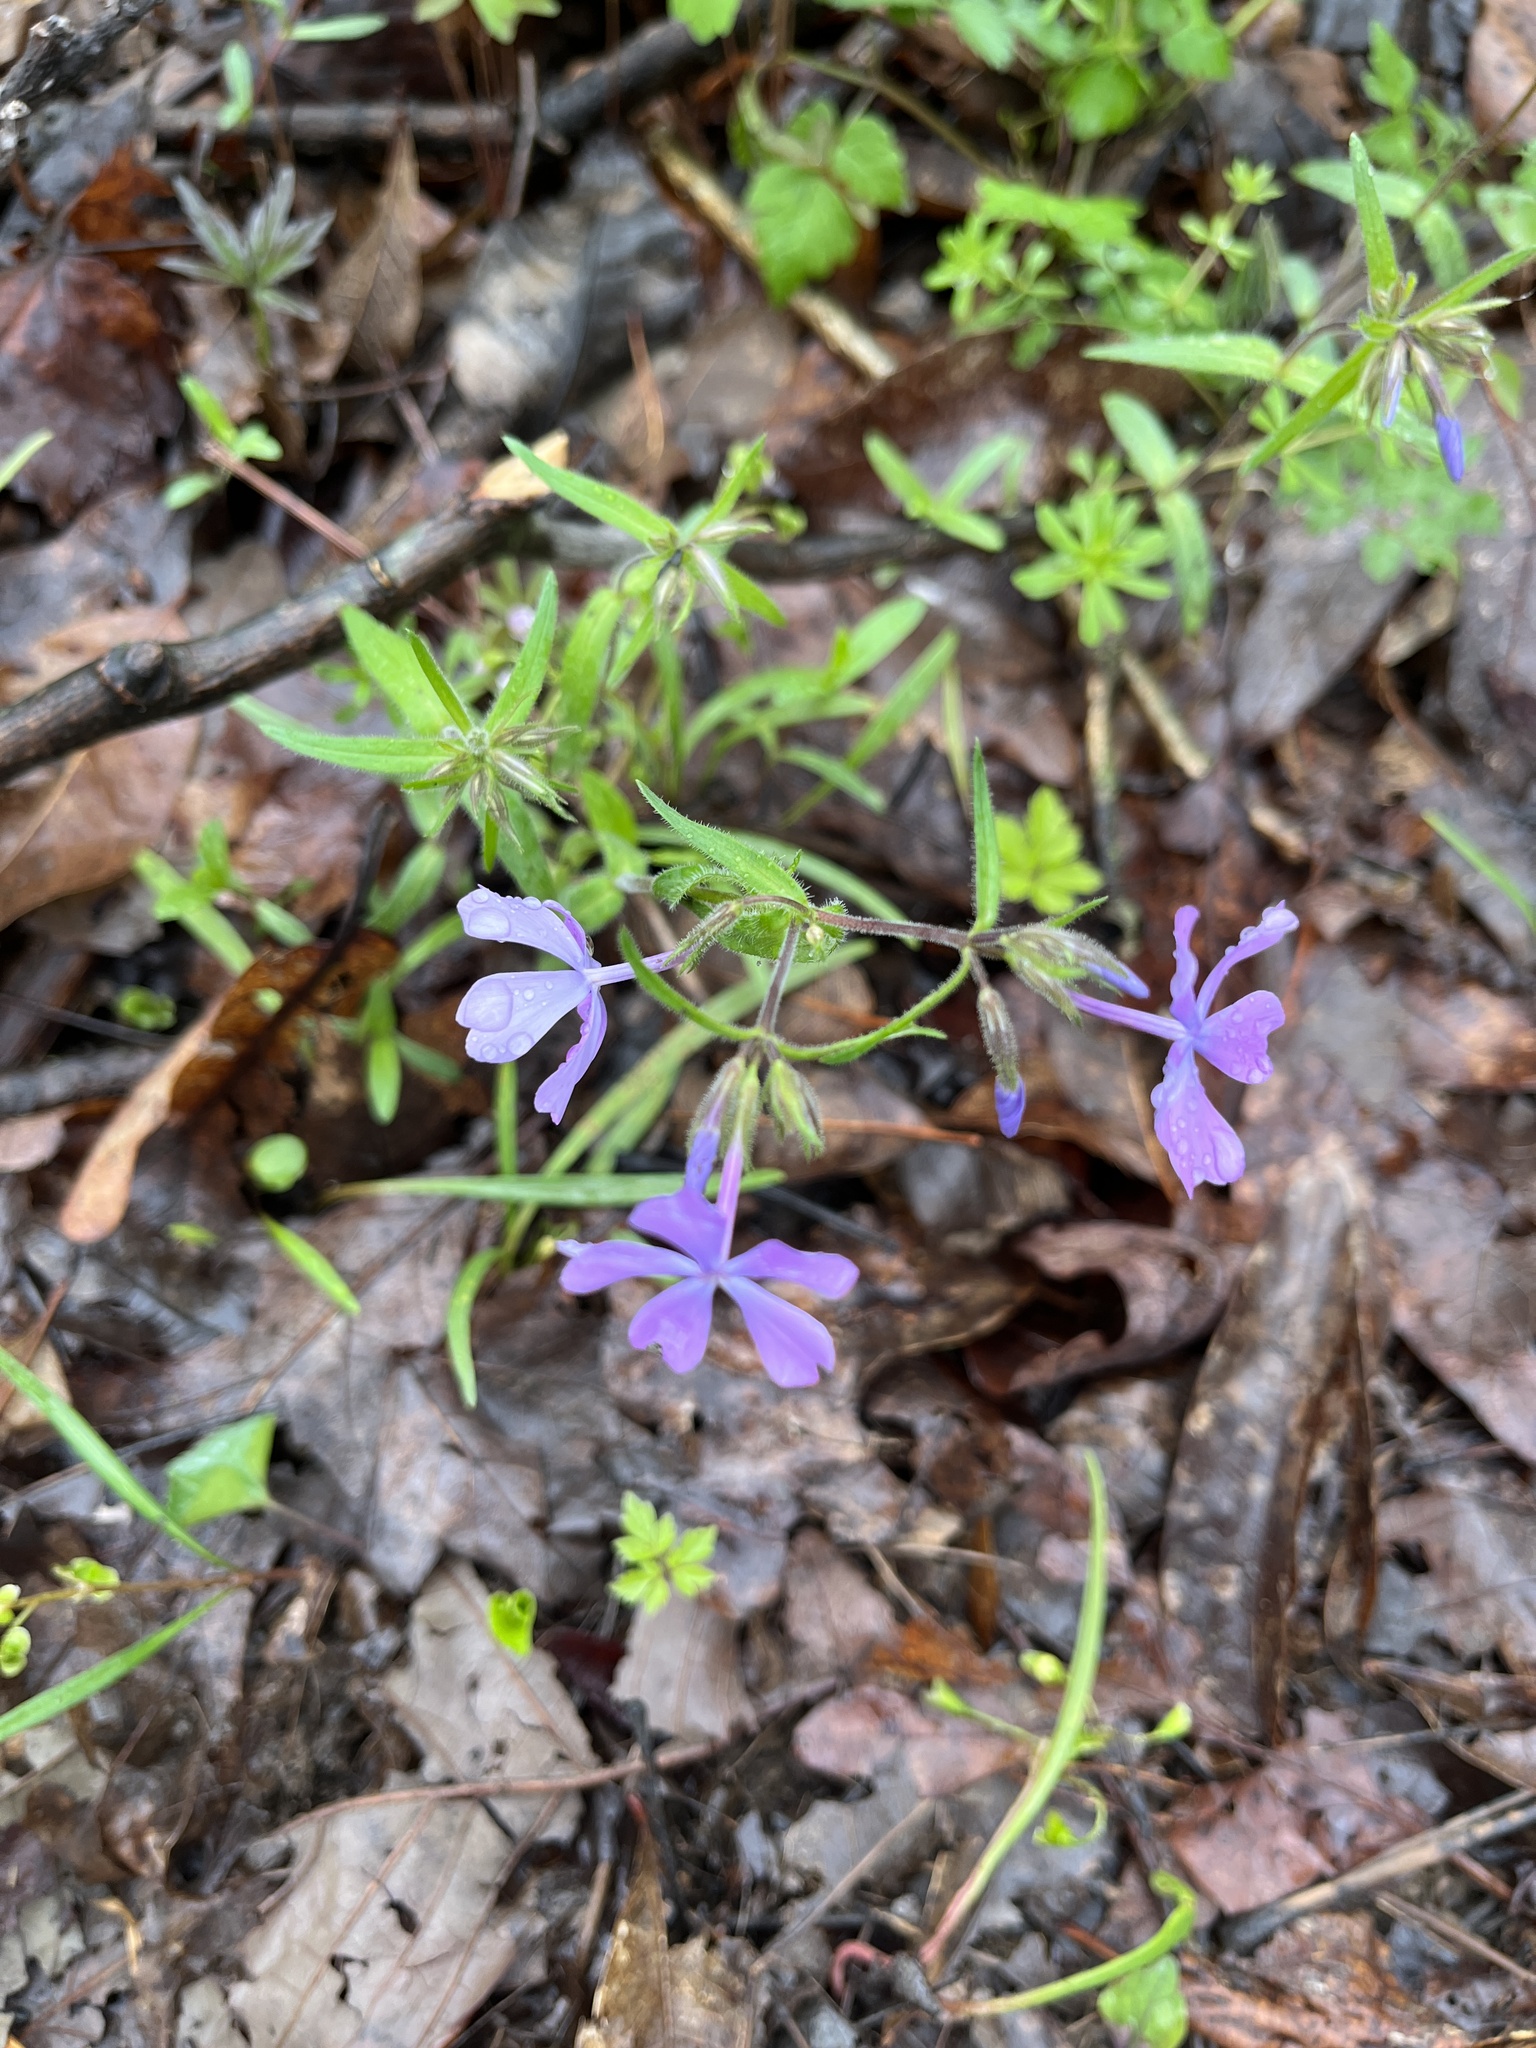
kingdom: Plantae
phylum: Tracheophyta
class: Magnoliopsida
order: Ericales
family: Polemoniaceae
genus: Phlox
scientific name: Phlox divaricata
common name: Blue phlox
